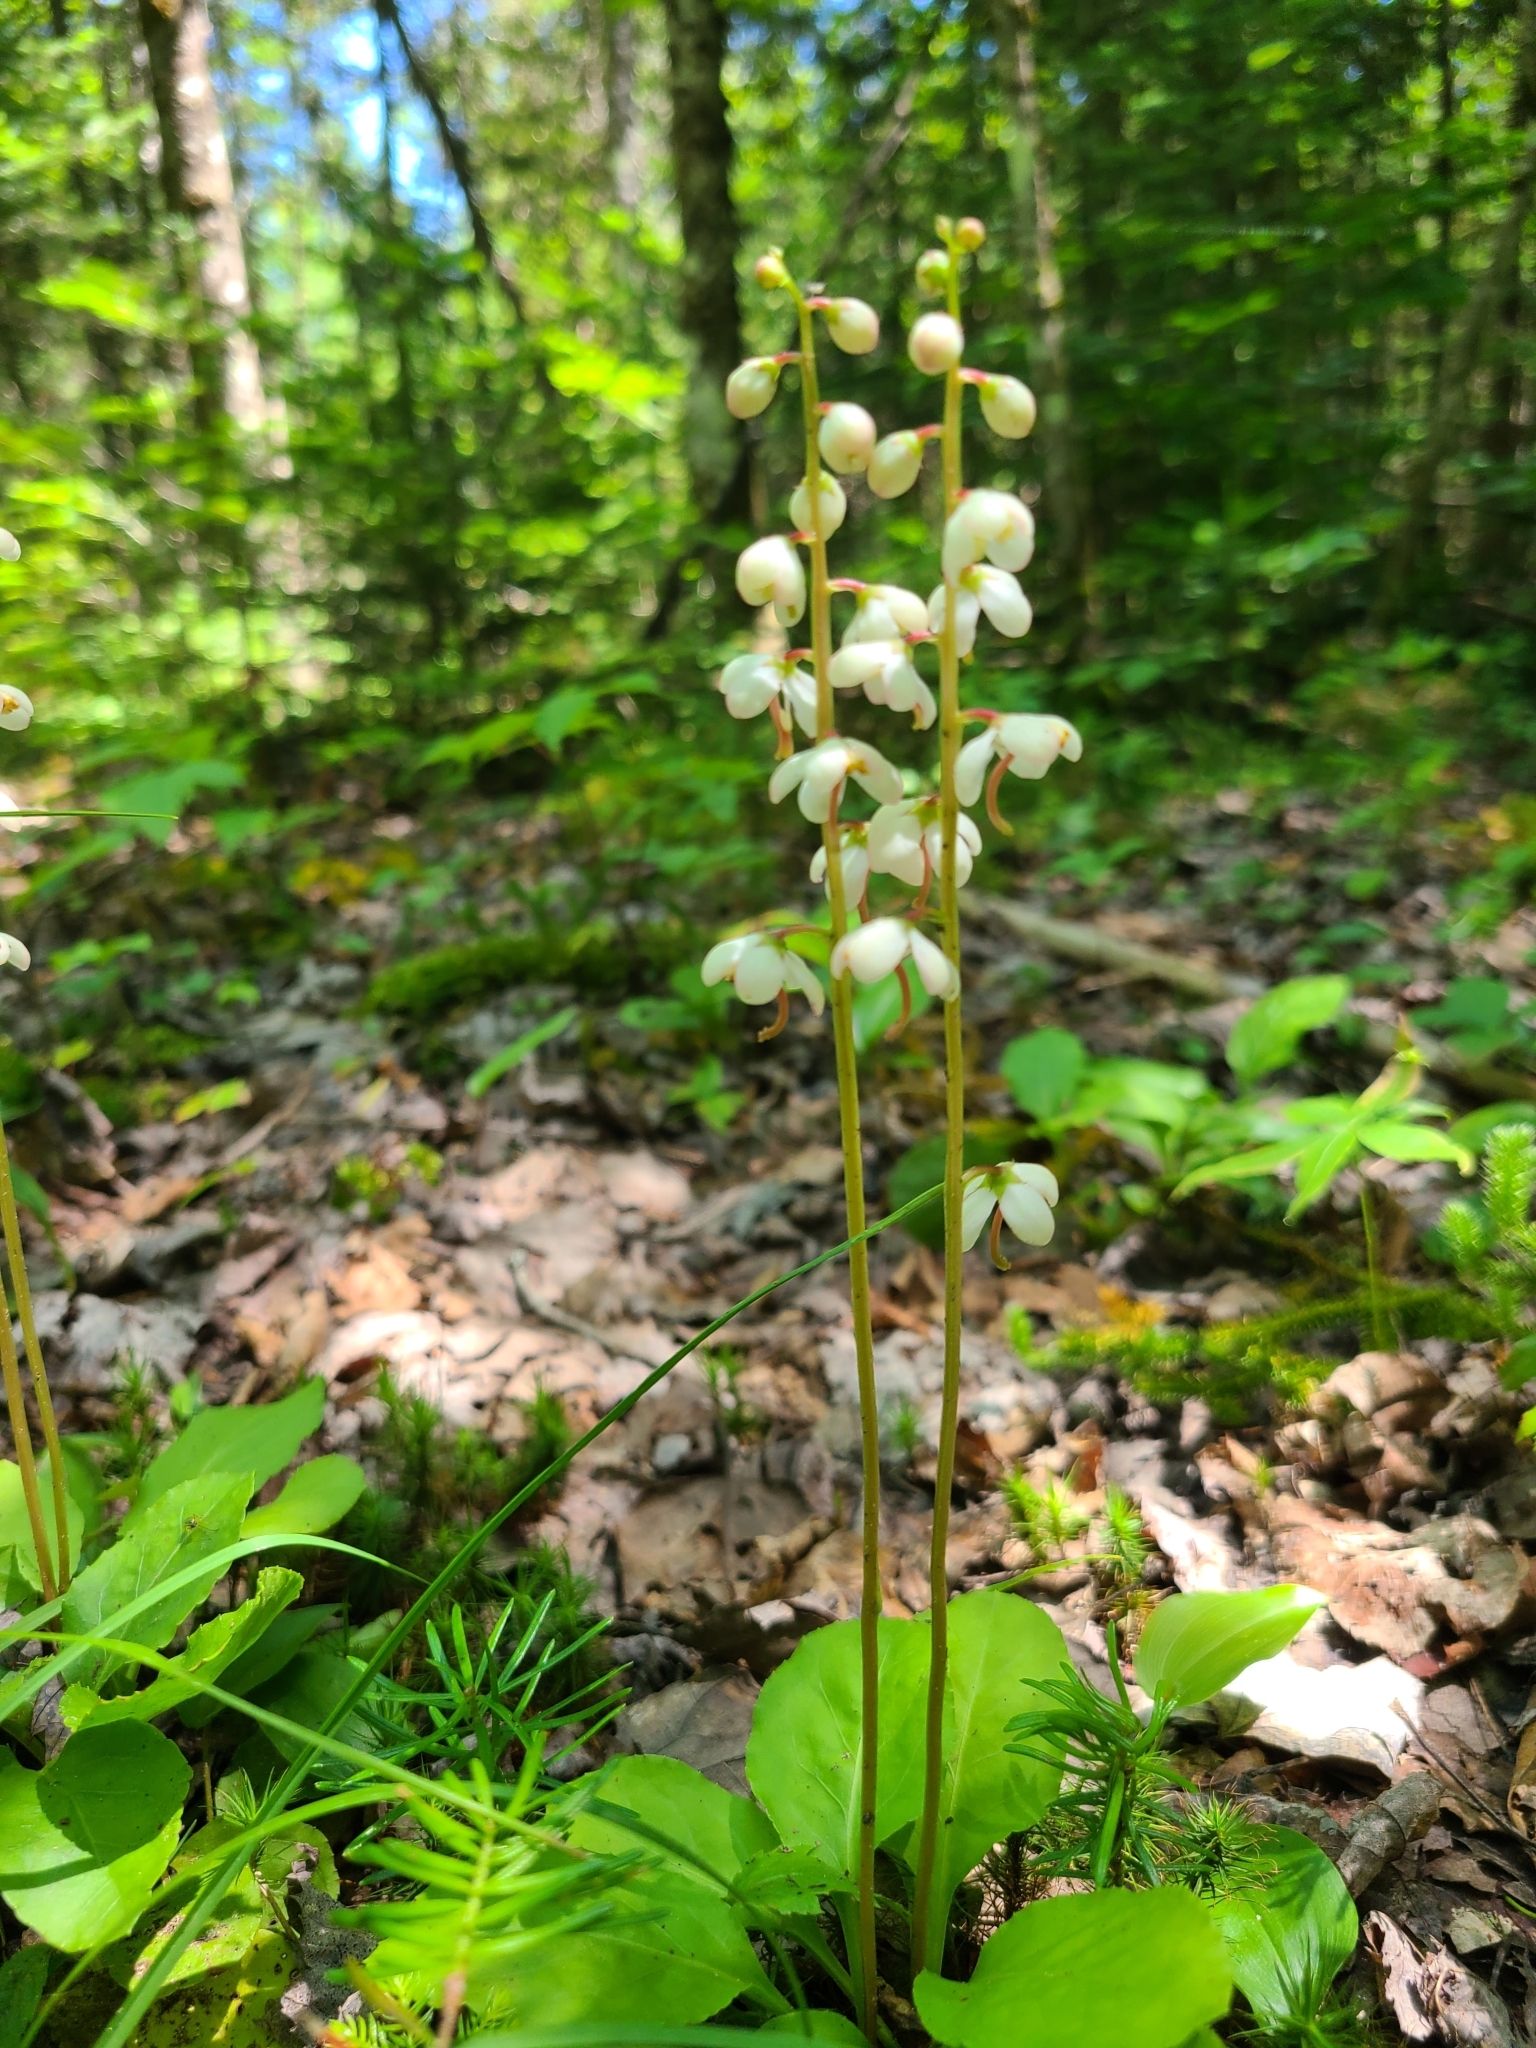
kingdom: Plantae
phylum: Tracheophyta
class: Magnoliopsida
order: Ericales
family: Ericaceae
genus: Pyrola
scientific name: Pyrola elliptica
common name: Shinleaf
